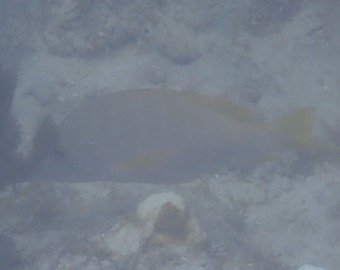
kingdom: Animalia
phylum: Chordata
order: Perciformes
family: Lutjanidae
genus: Lutjanus
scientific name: Lutjanus apodus
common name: Schoolmaster
